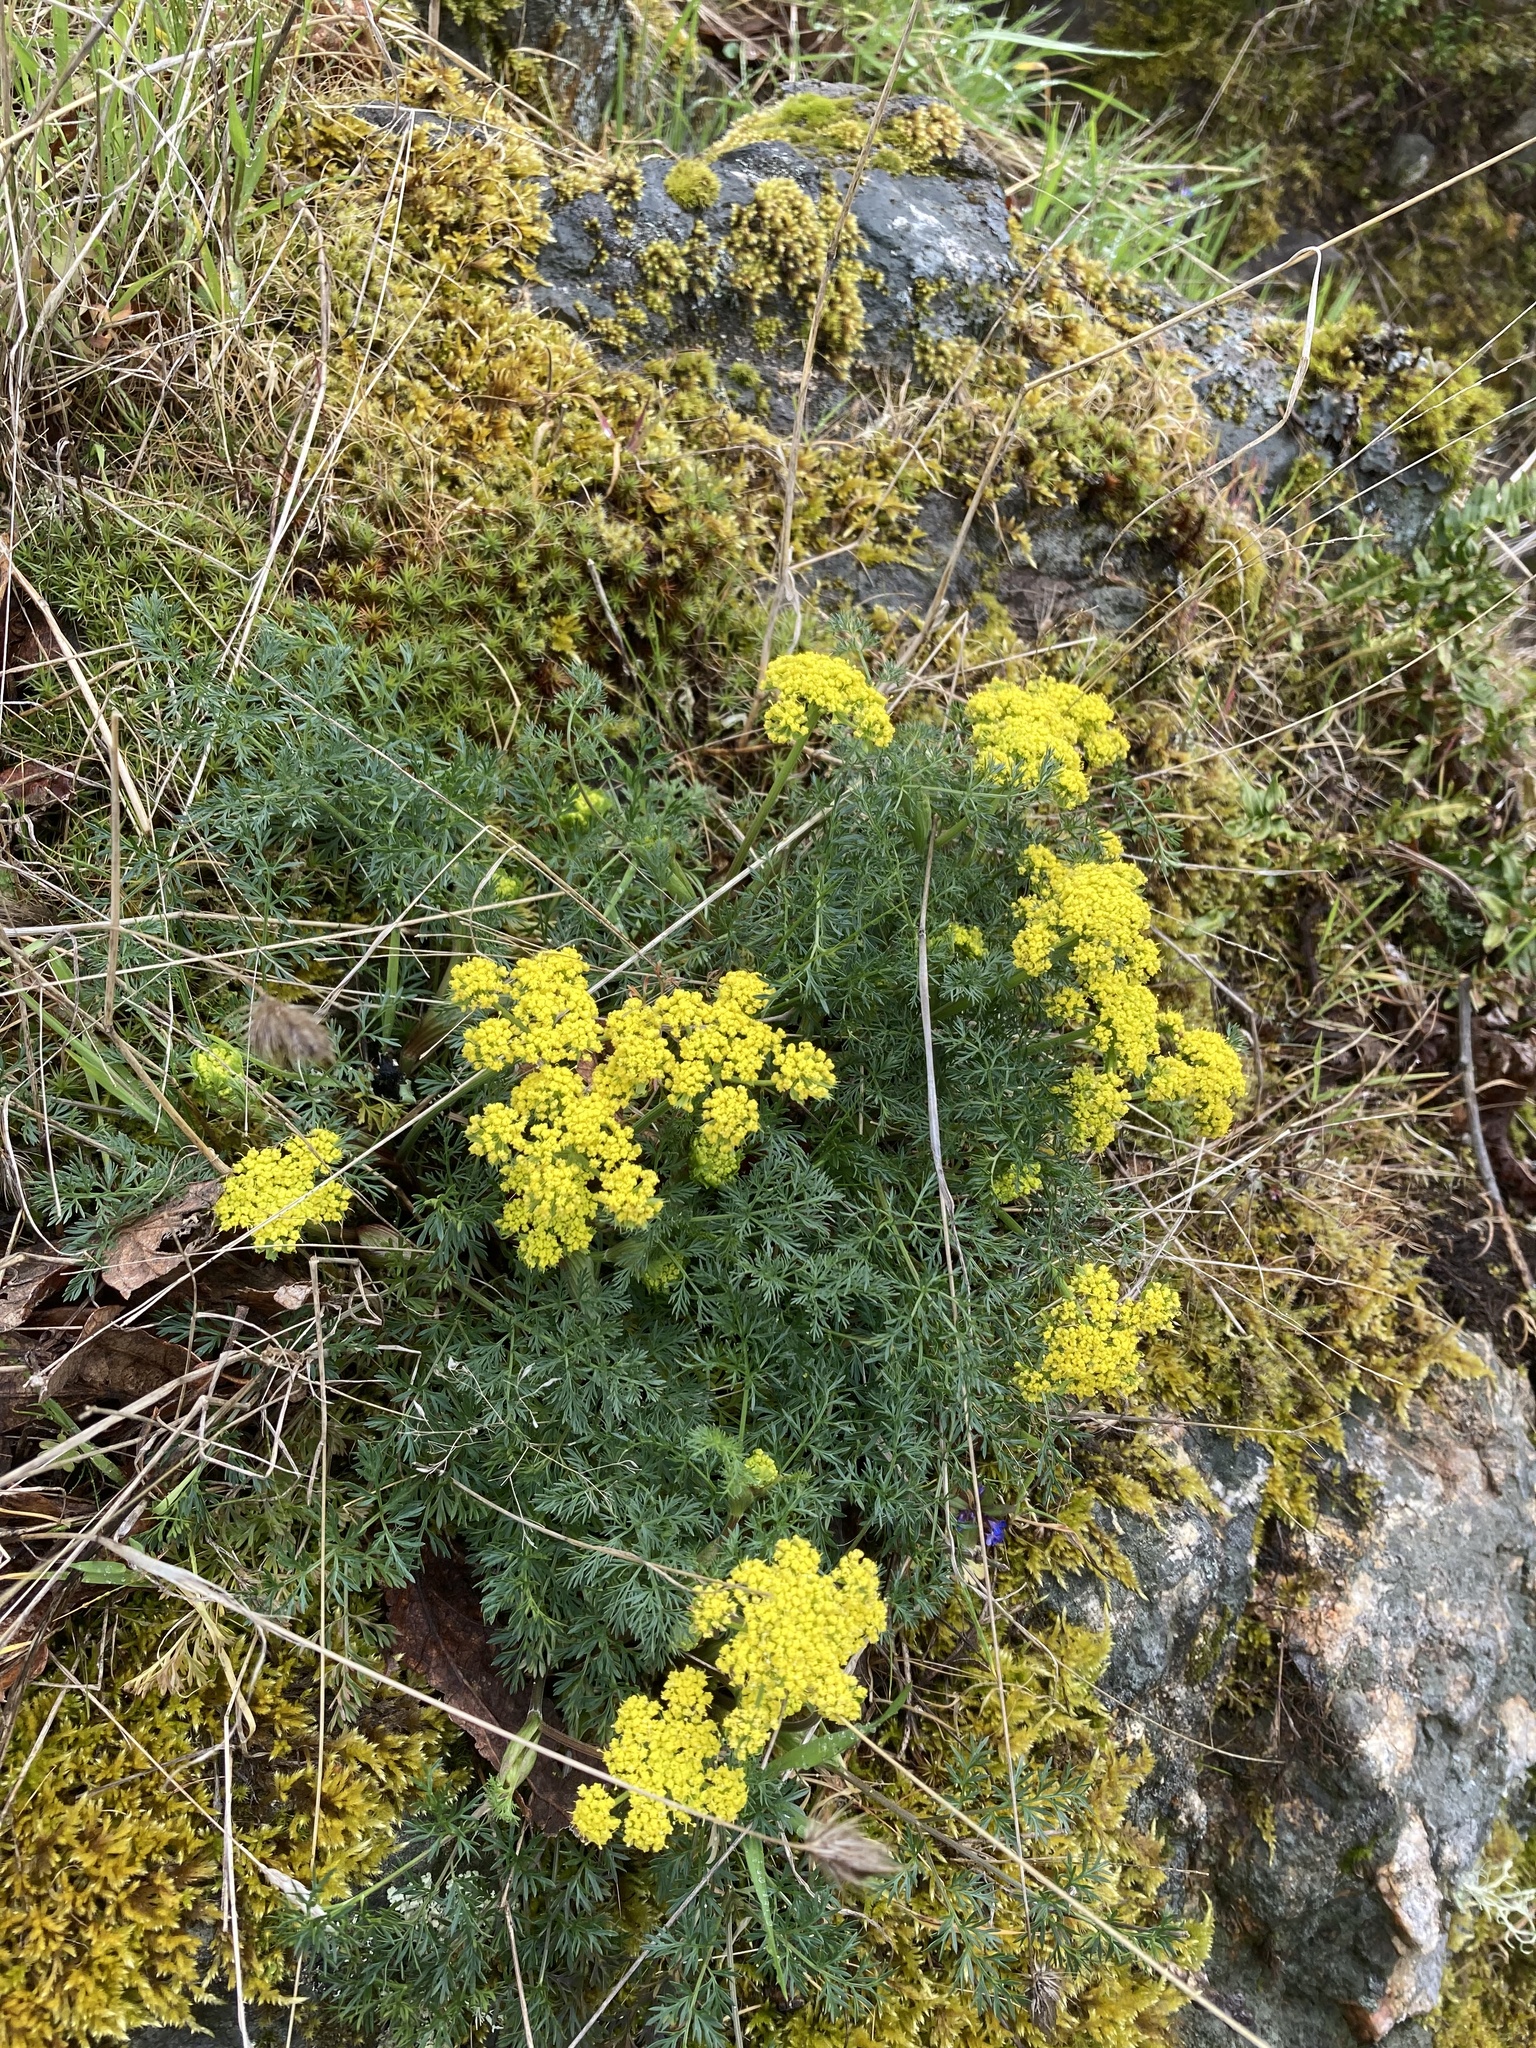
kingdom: Plantae
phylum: Tracheophyta
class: Magnoliopsida
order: Apiales
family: Apiaceae
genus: Lomatium
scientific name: Lomatium utriculatum
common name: Fine-leaf desert-parsley
